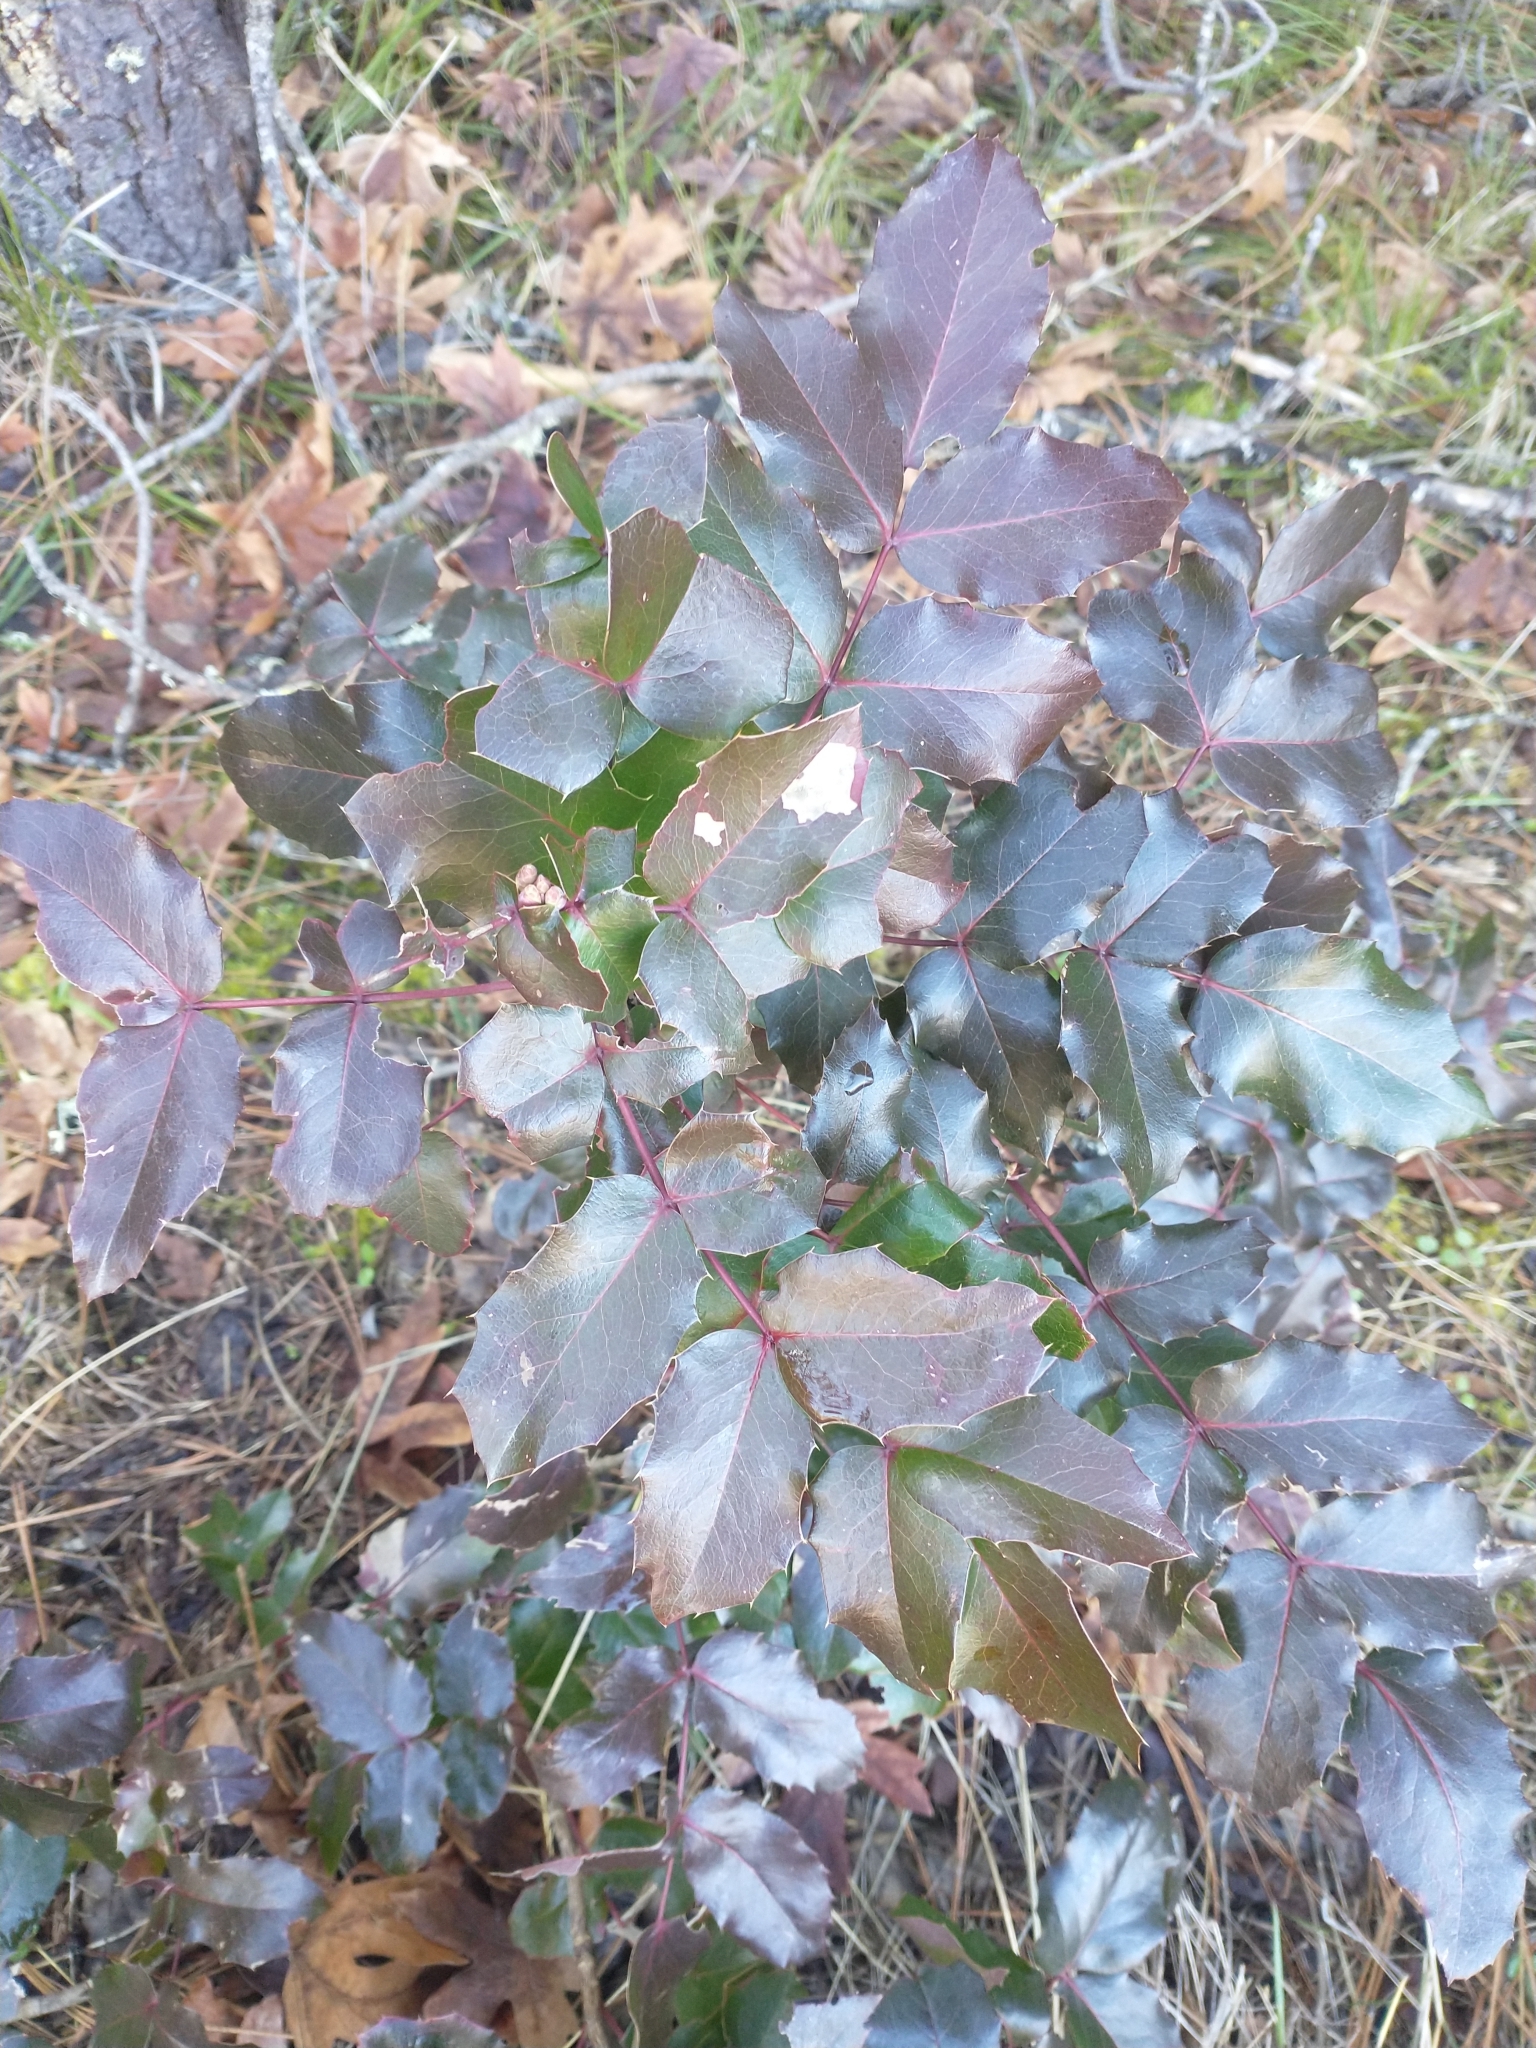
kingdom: Plantae
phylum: Tracheophyta
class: Magnoliopsida
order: Ranunculales
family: Berberidaceae
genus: Mahonia
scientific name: Mahonia aquifolium
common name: Oregon-grape
